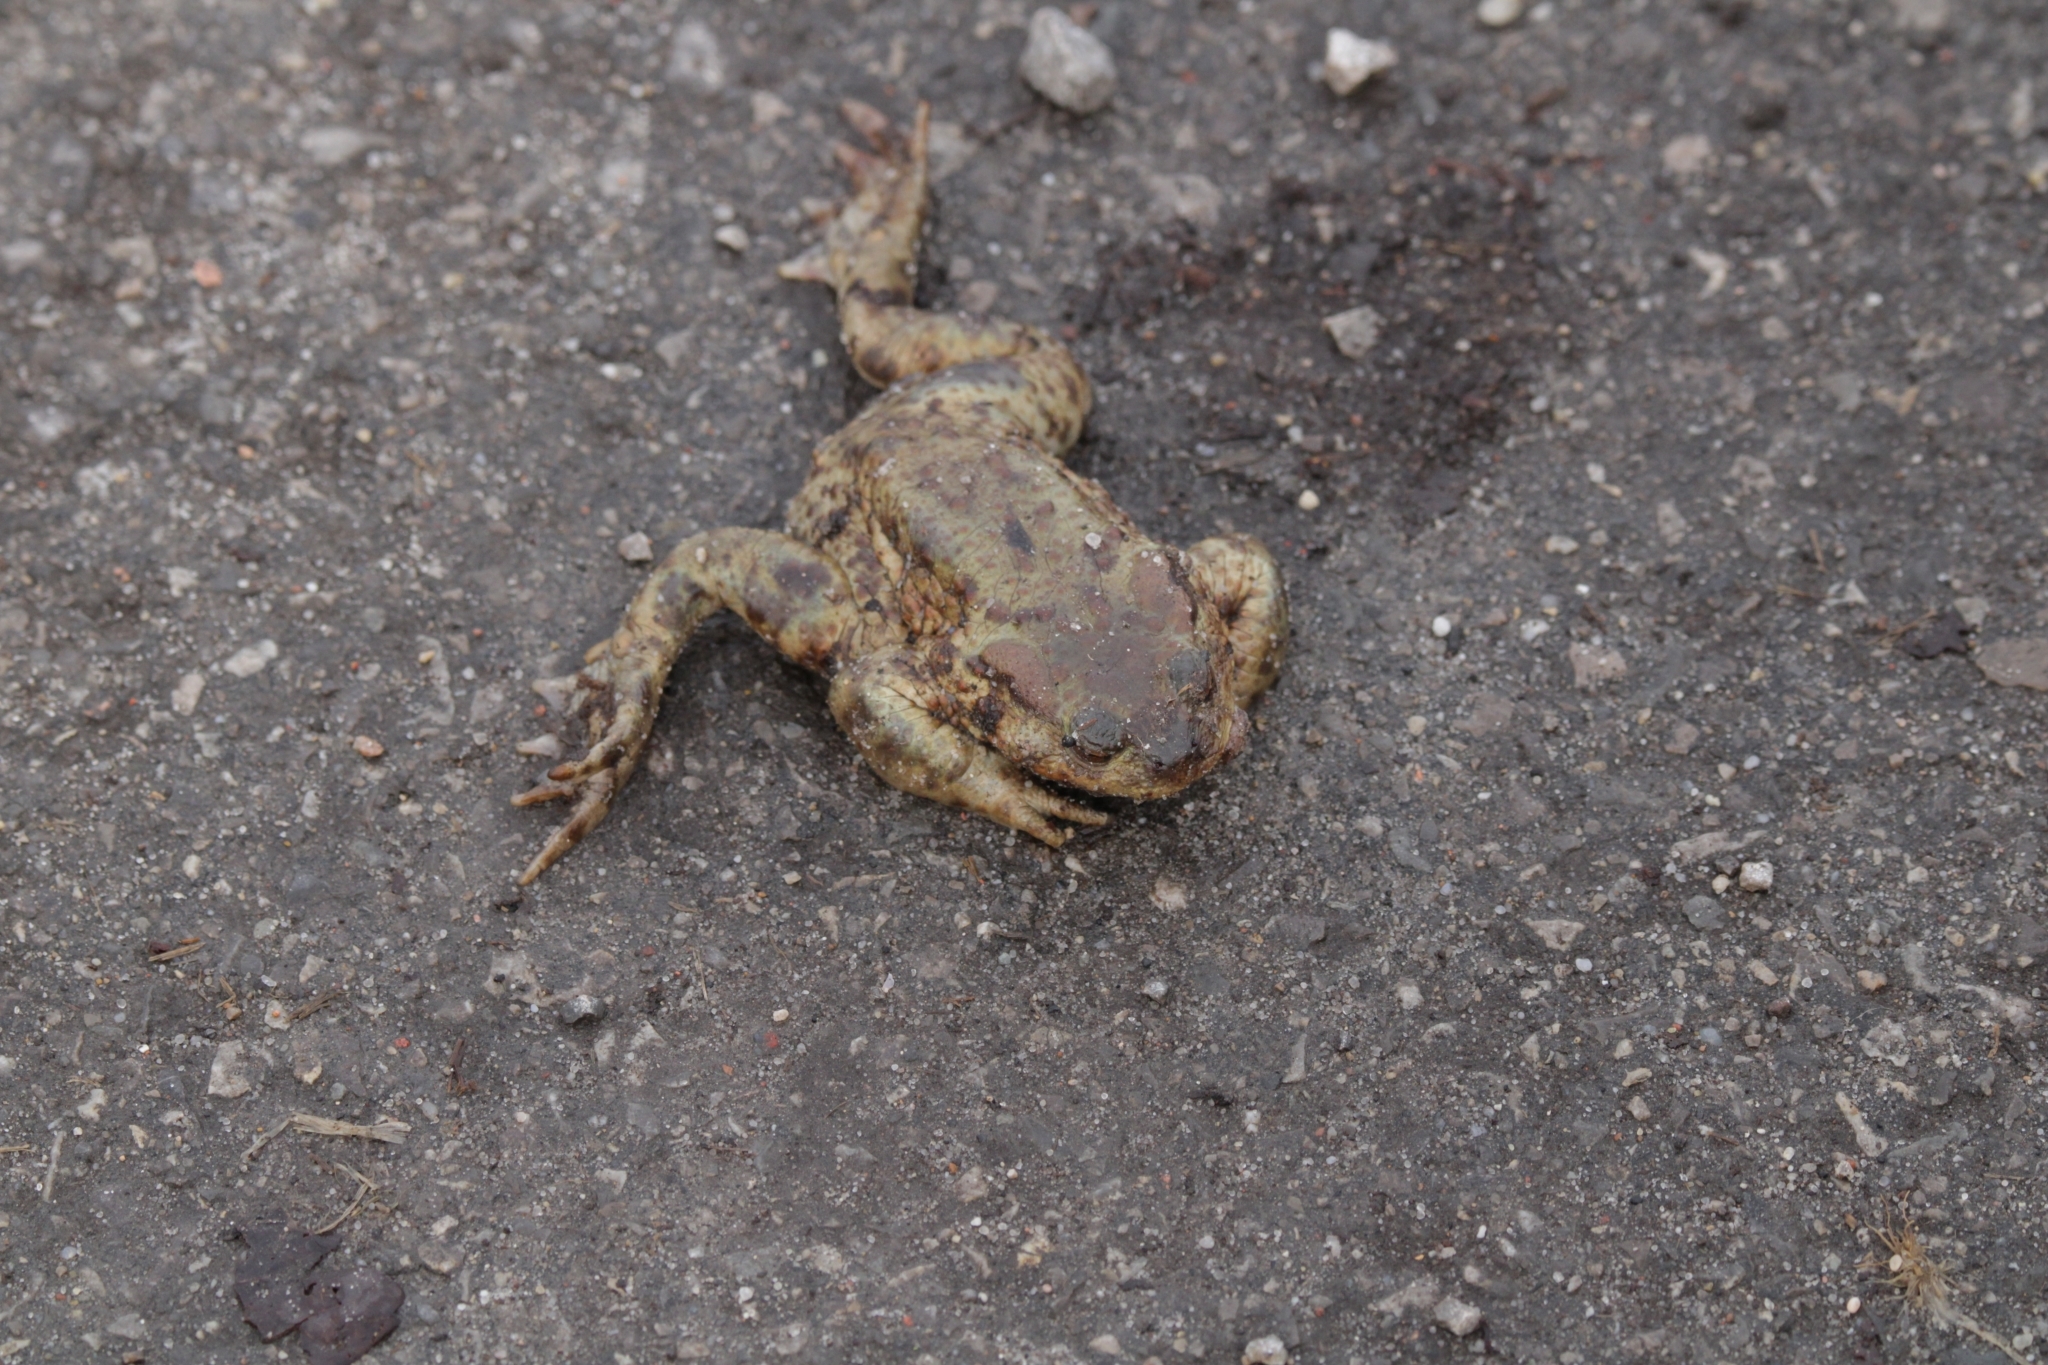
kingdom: Animalia
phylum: Chordata
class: Amphibia
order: Anura
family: Bufonidae
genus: Bufo
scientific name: Bufo bufo
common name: Common toad
